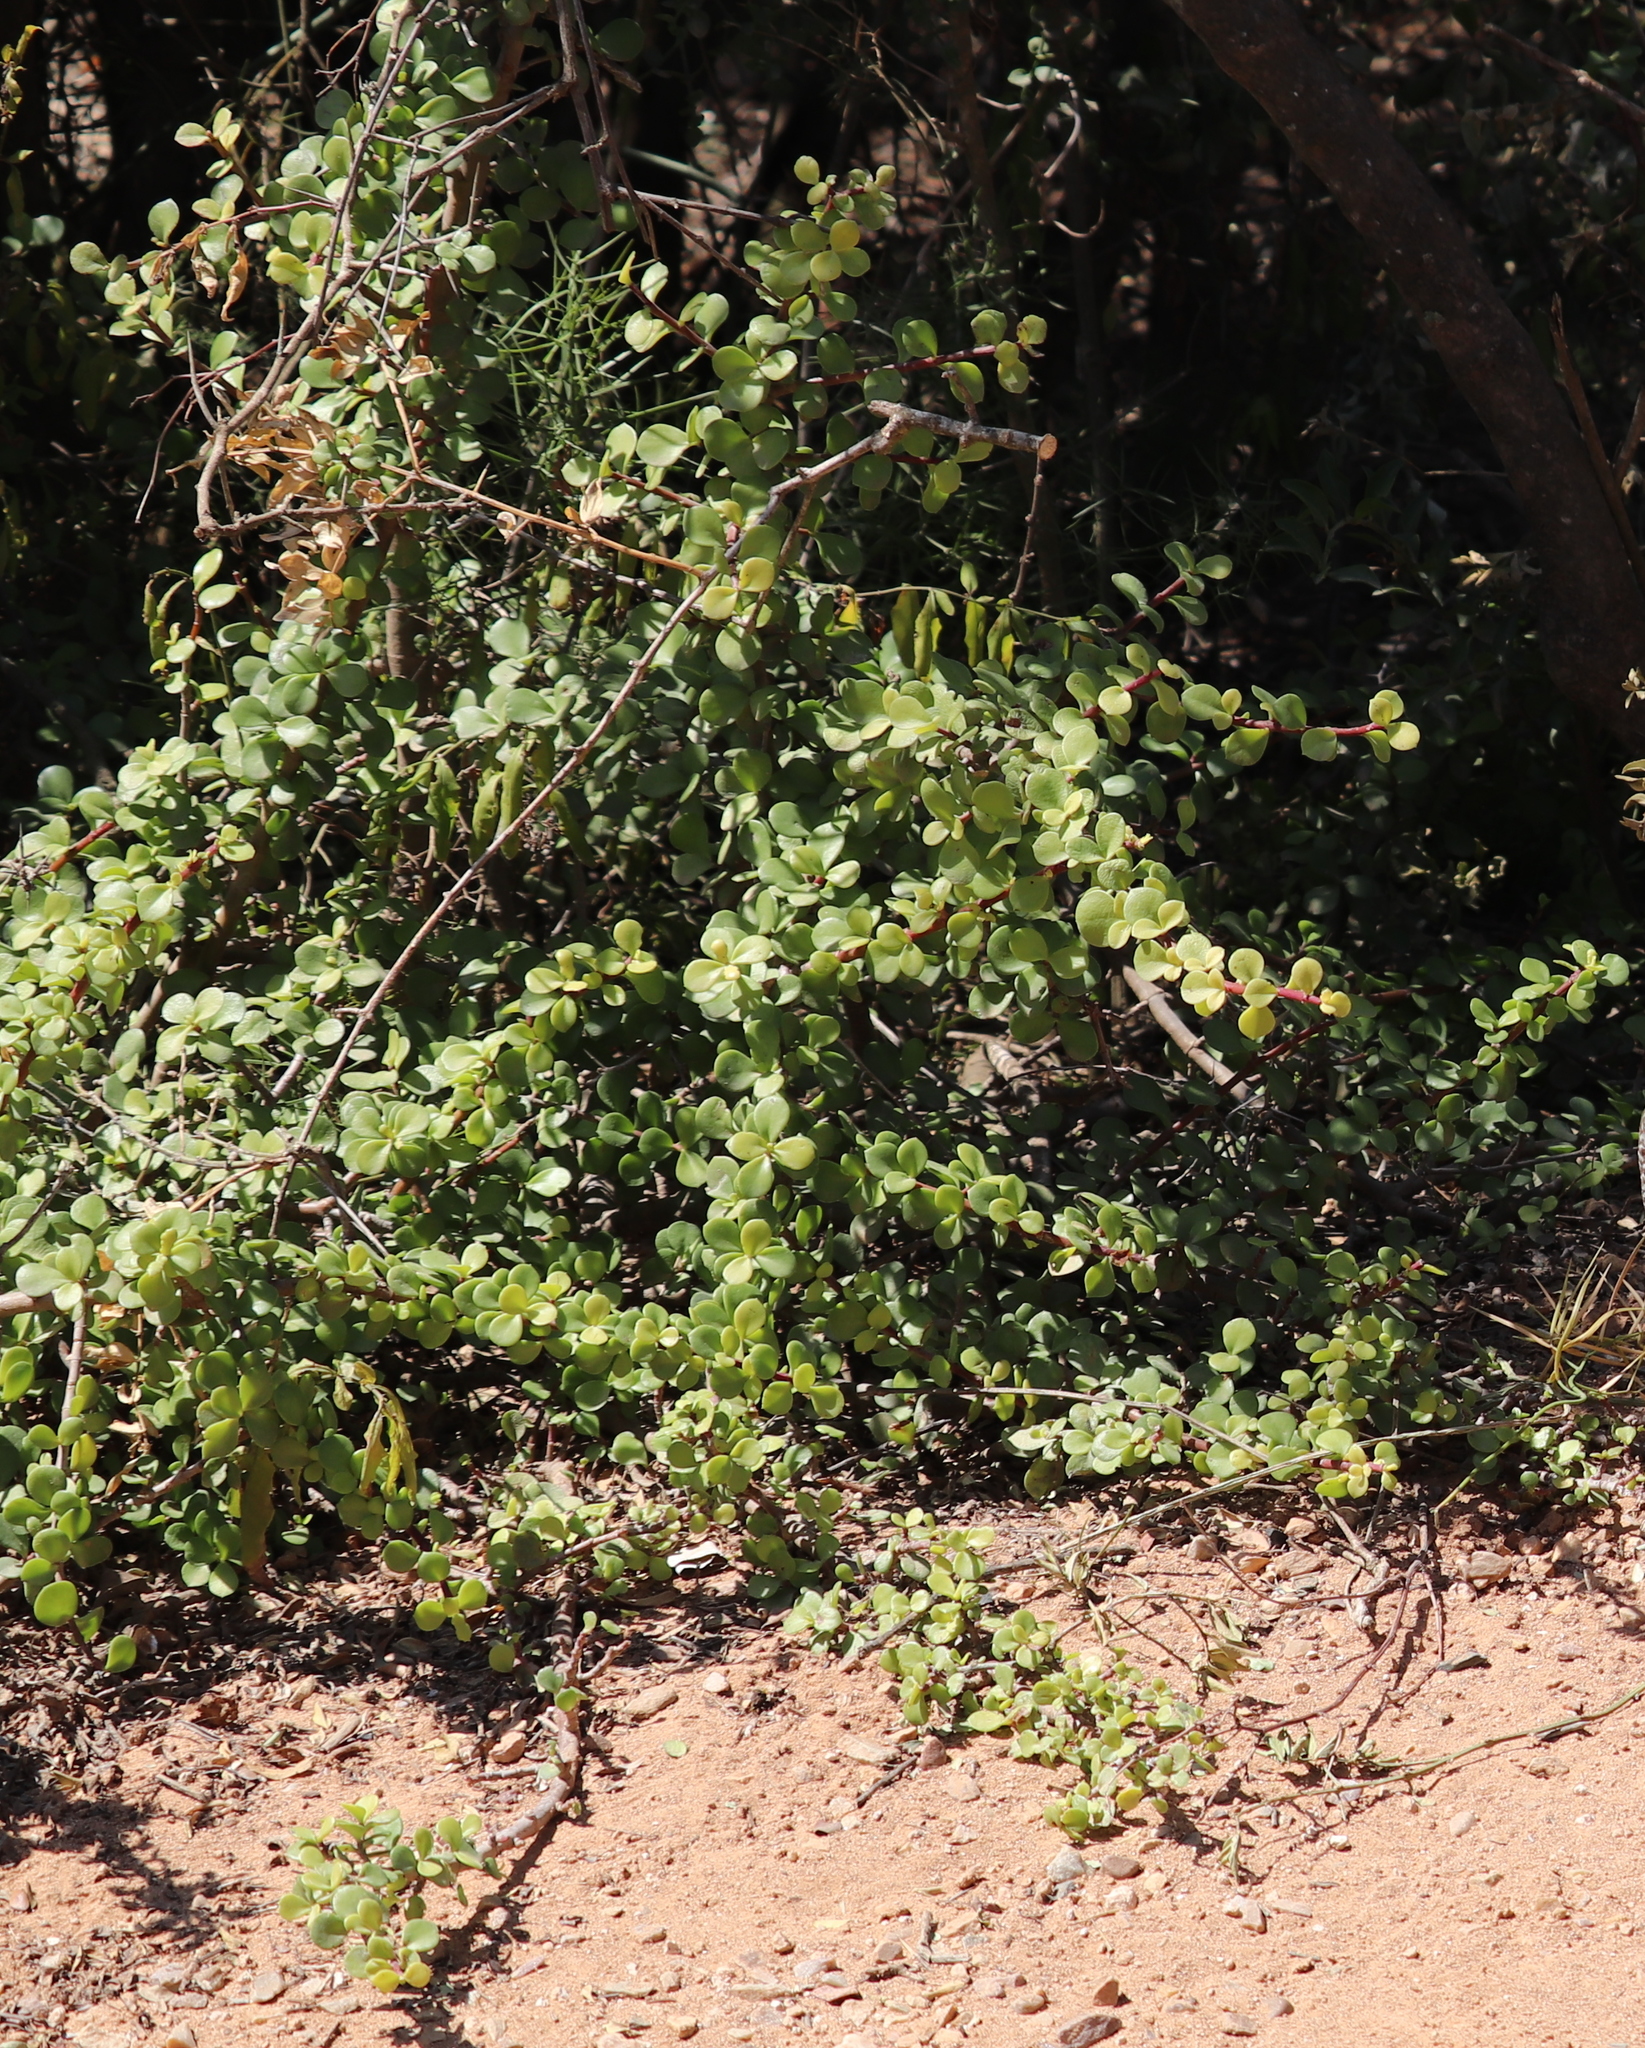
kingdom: Plantae
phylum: Tracheophyta
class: Magnoliopsida
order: Caryophyllales
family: Didiereaceae
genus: Portulacaria
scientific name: Portulacaria afra
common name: Elephant-bush
